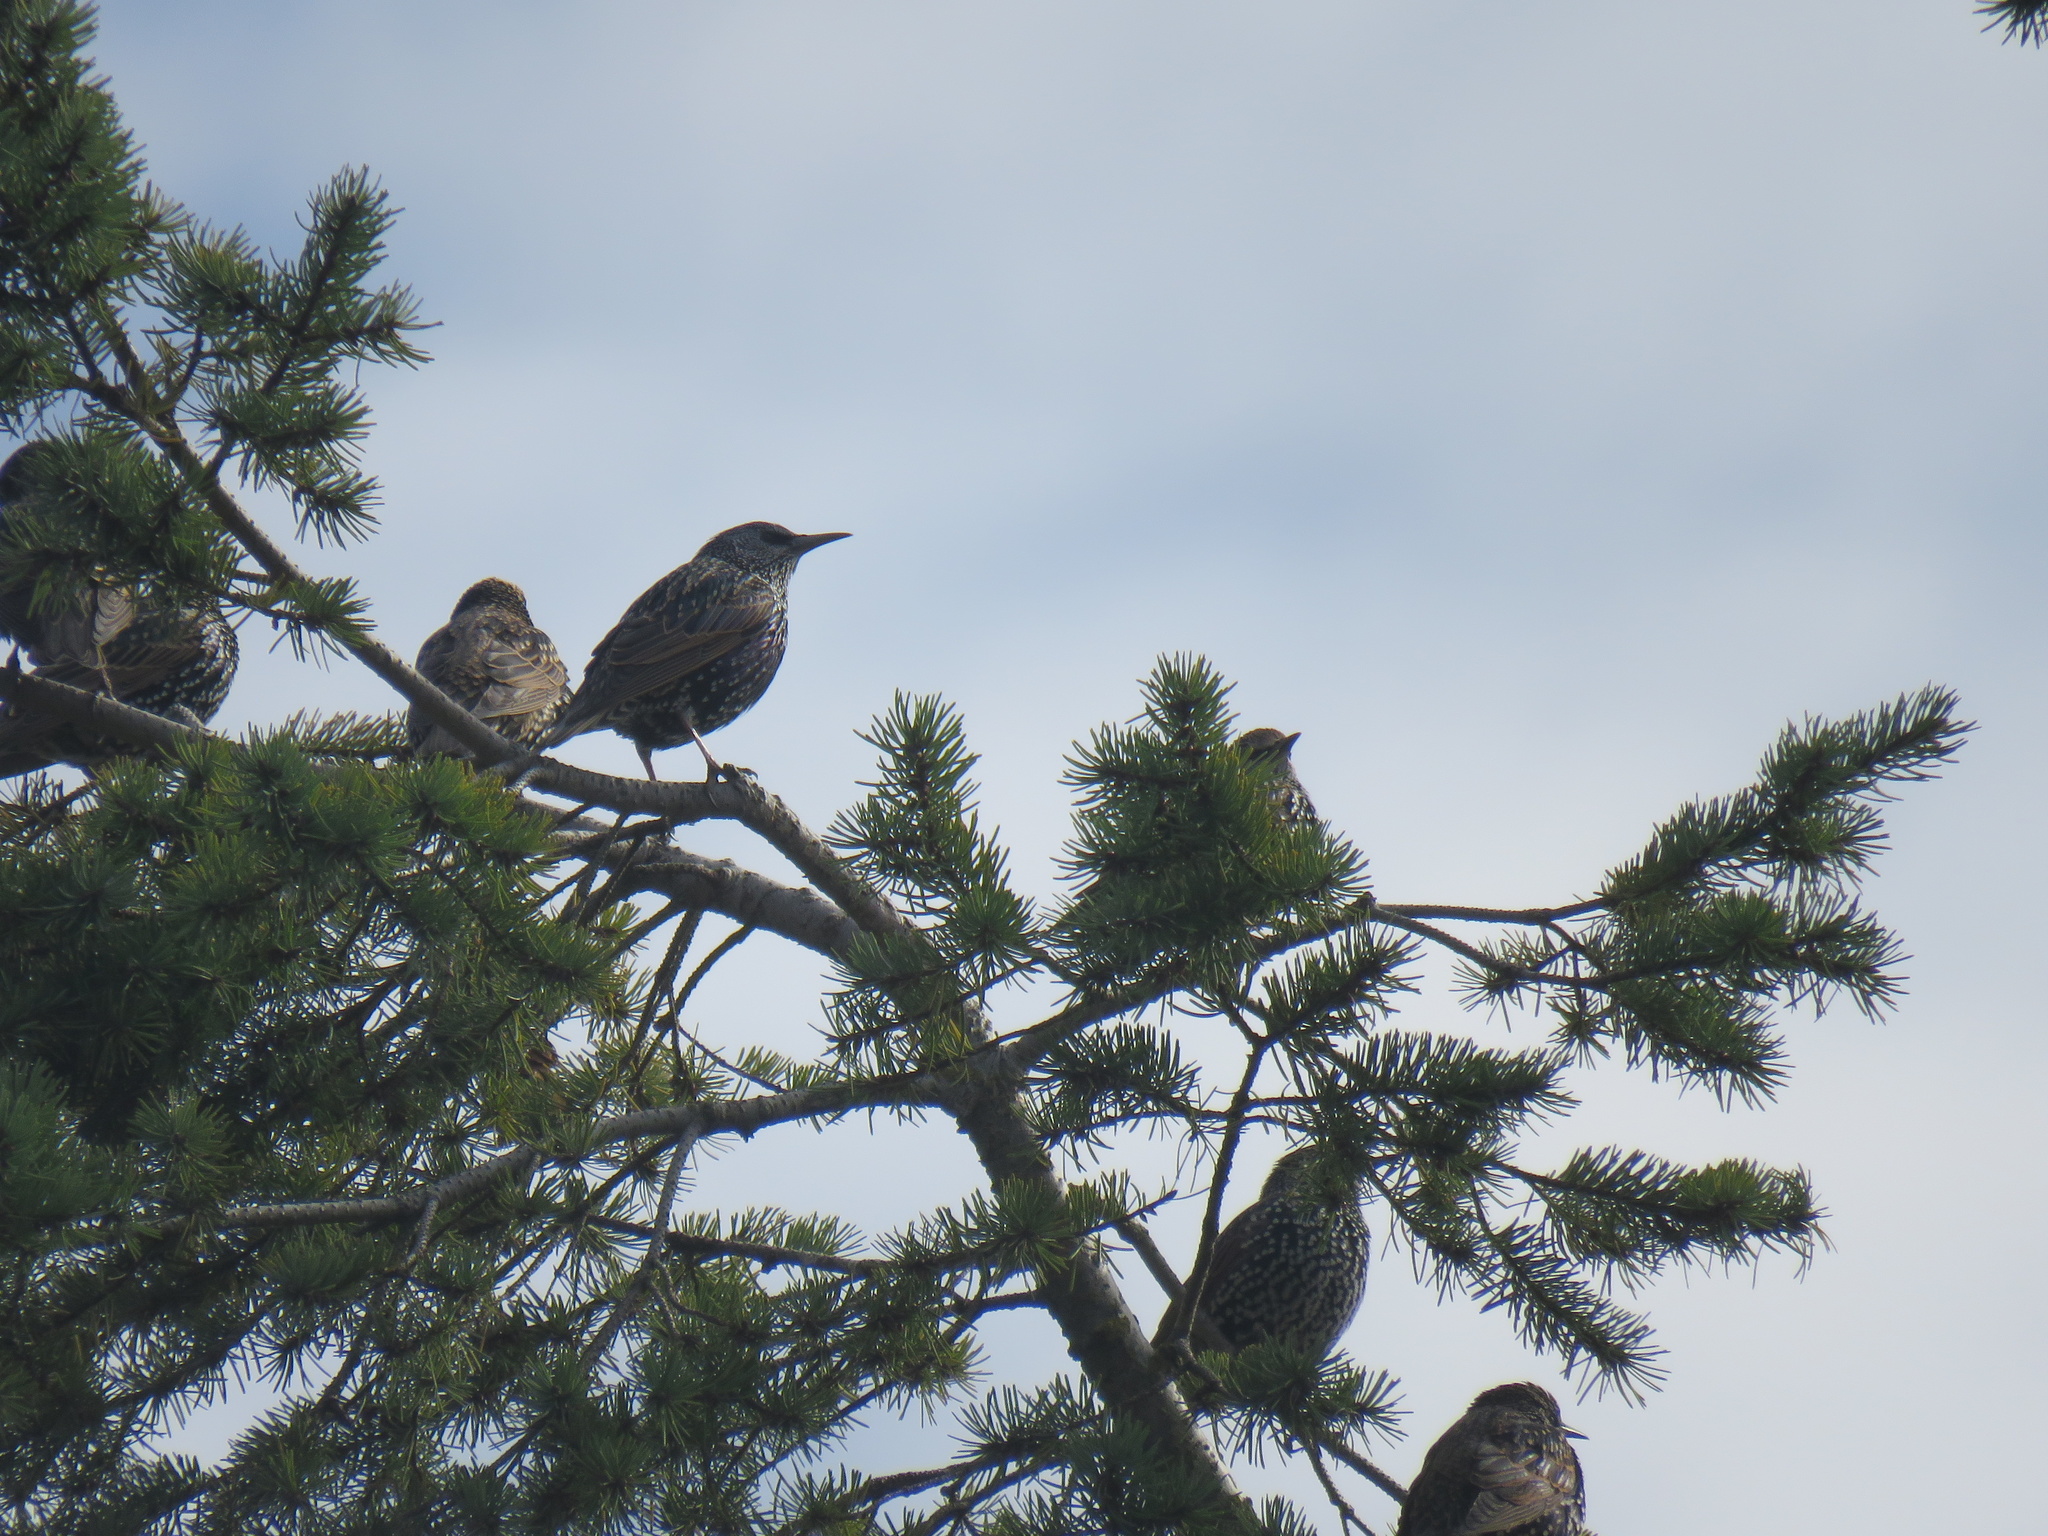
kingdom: Animalia
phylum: Chordata
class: Aves
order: Passeriformes
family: Sturnidae
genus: Sturnus
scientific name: Sturnus vulgaris
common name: Common starling
